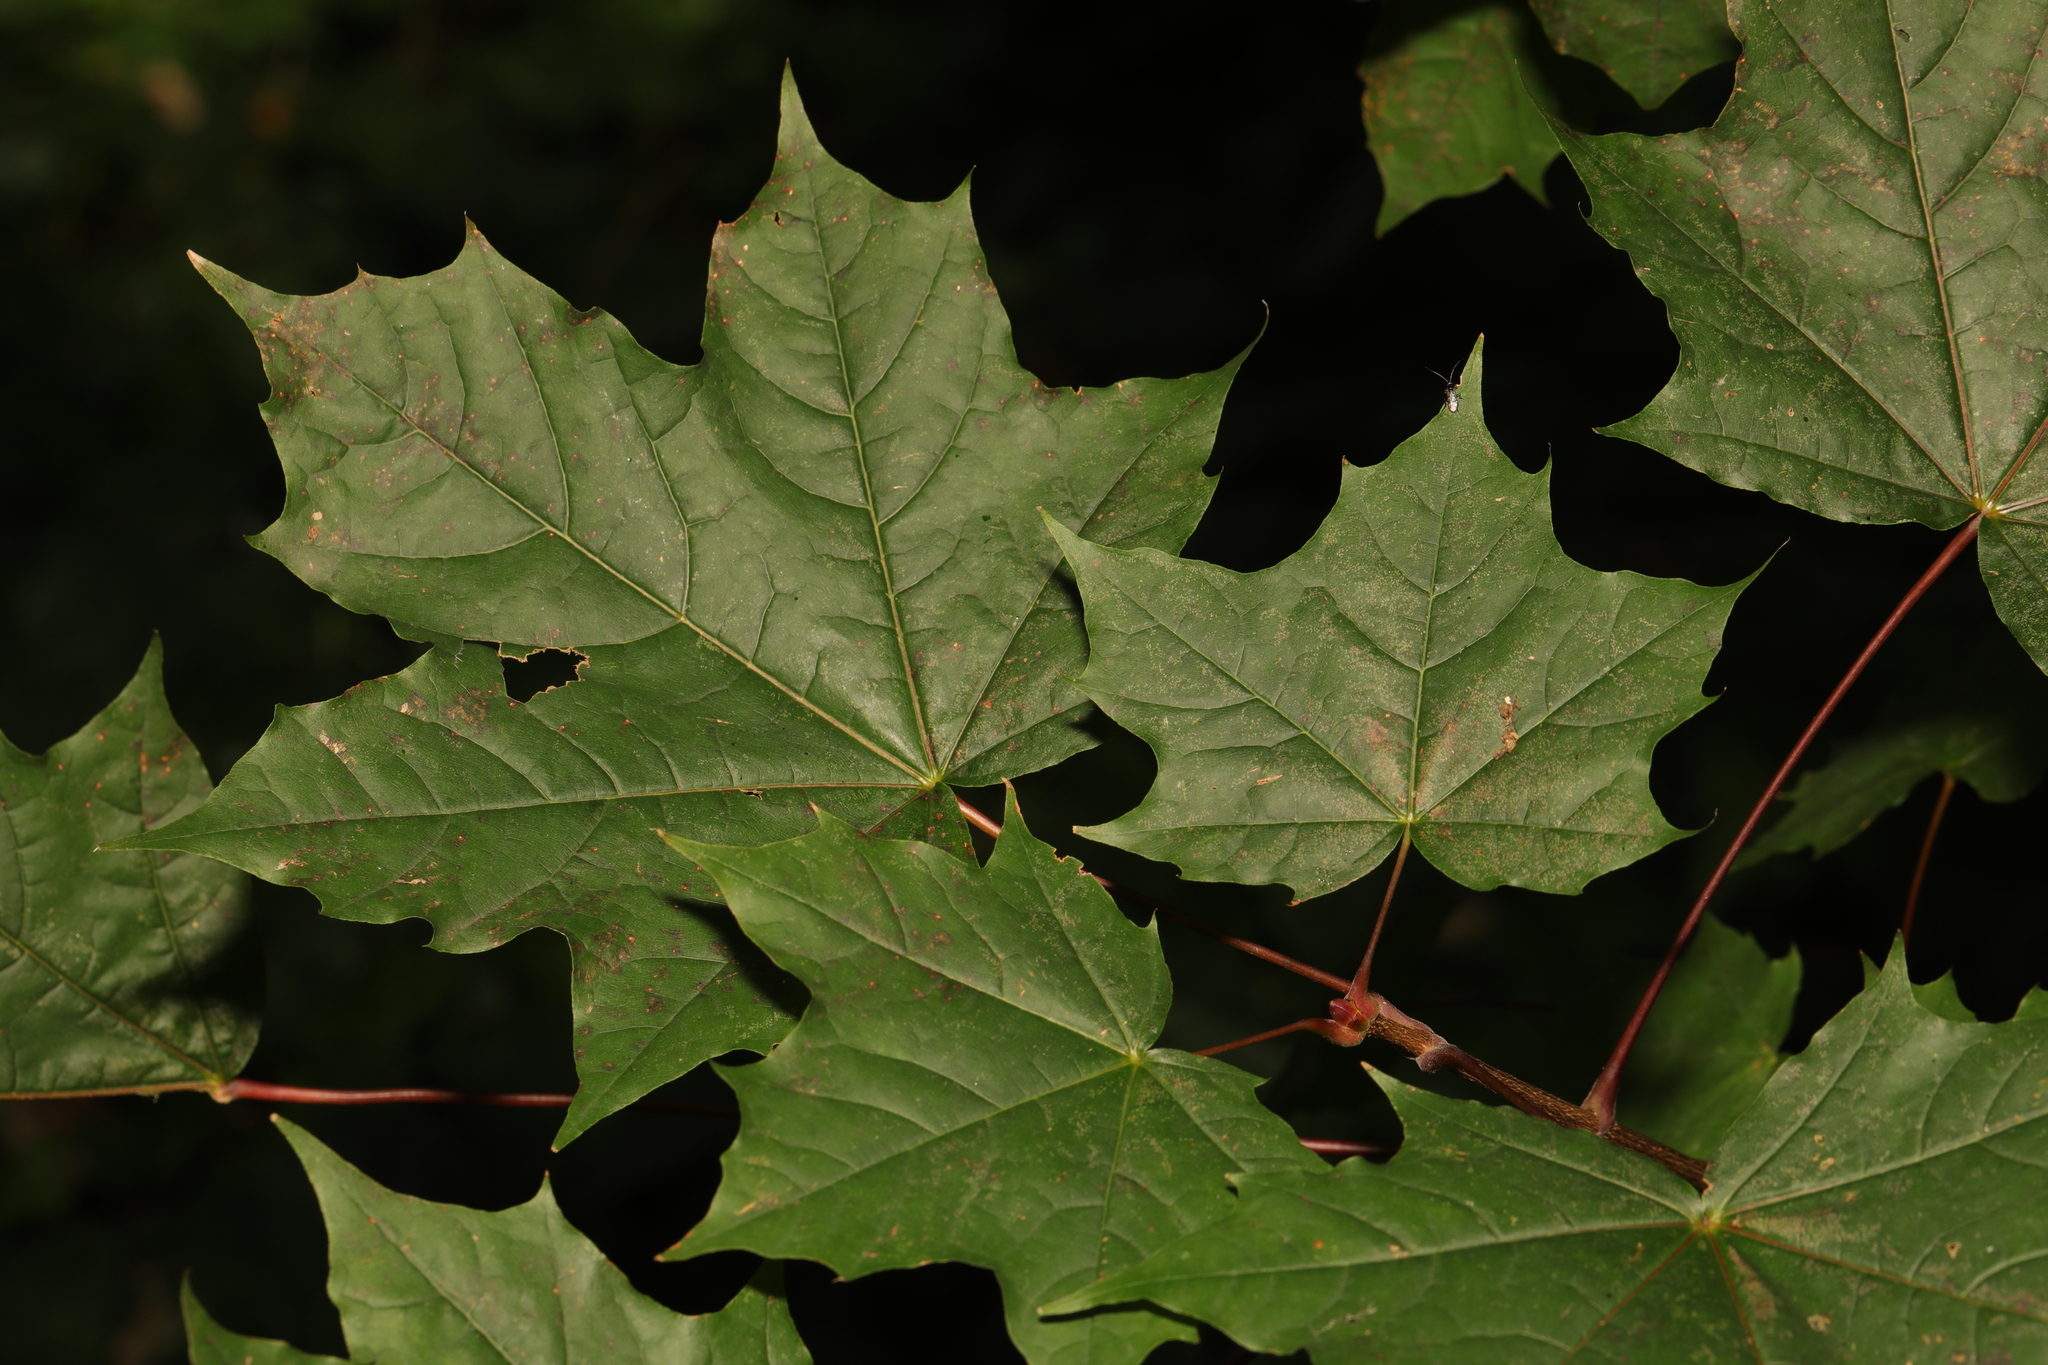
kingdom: Plantae
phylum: Tracheophyta
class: Magnoliopsida
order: Sapindales
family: Sapindaceae
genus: Acer
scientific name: Acer platanoides
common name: Norway maple
